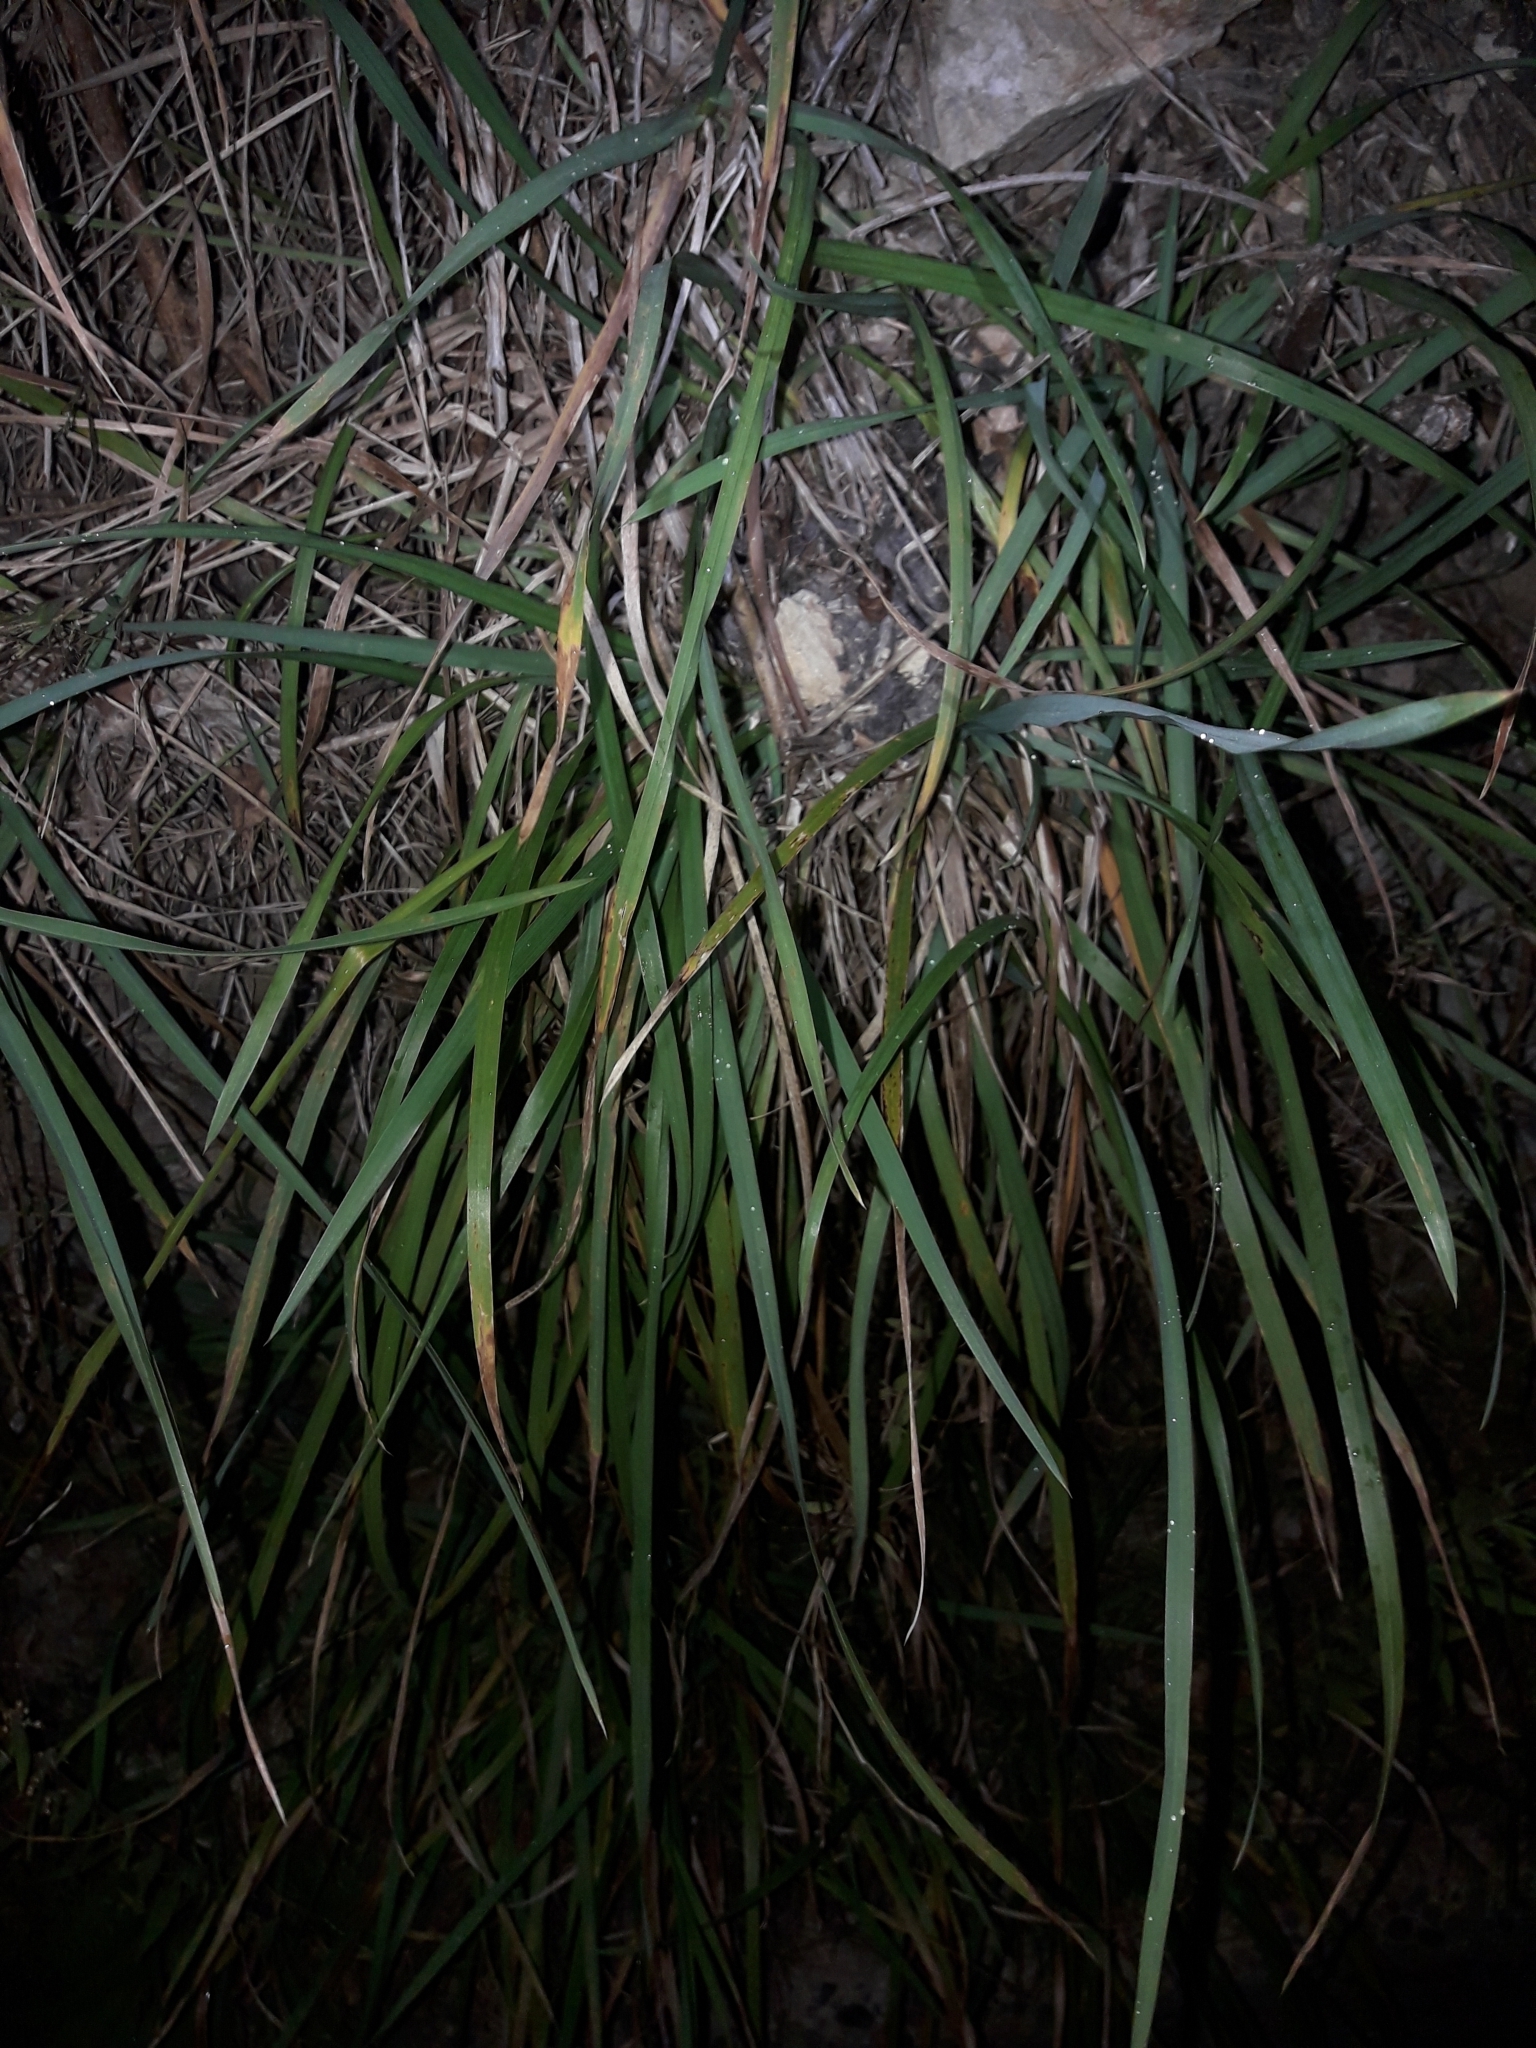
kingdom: Plantae
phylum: Tracheophyta
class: Liliopsida
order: Poales
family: Poaceae
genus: Poa
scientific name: Poa anceps
